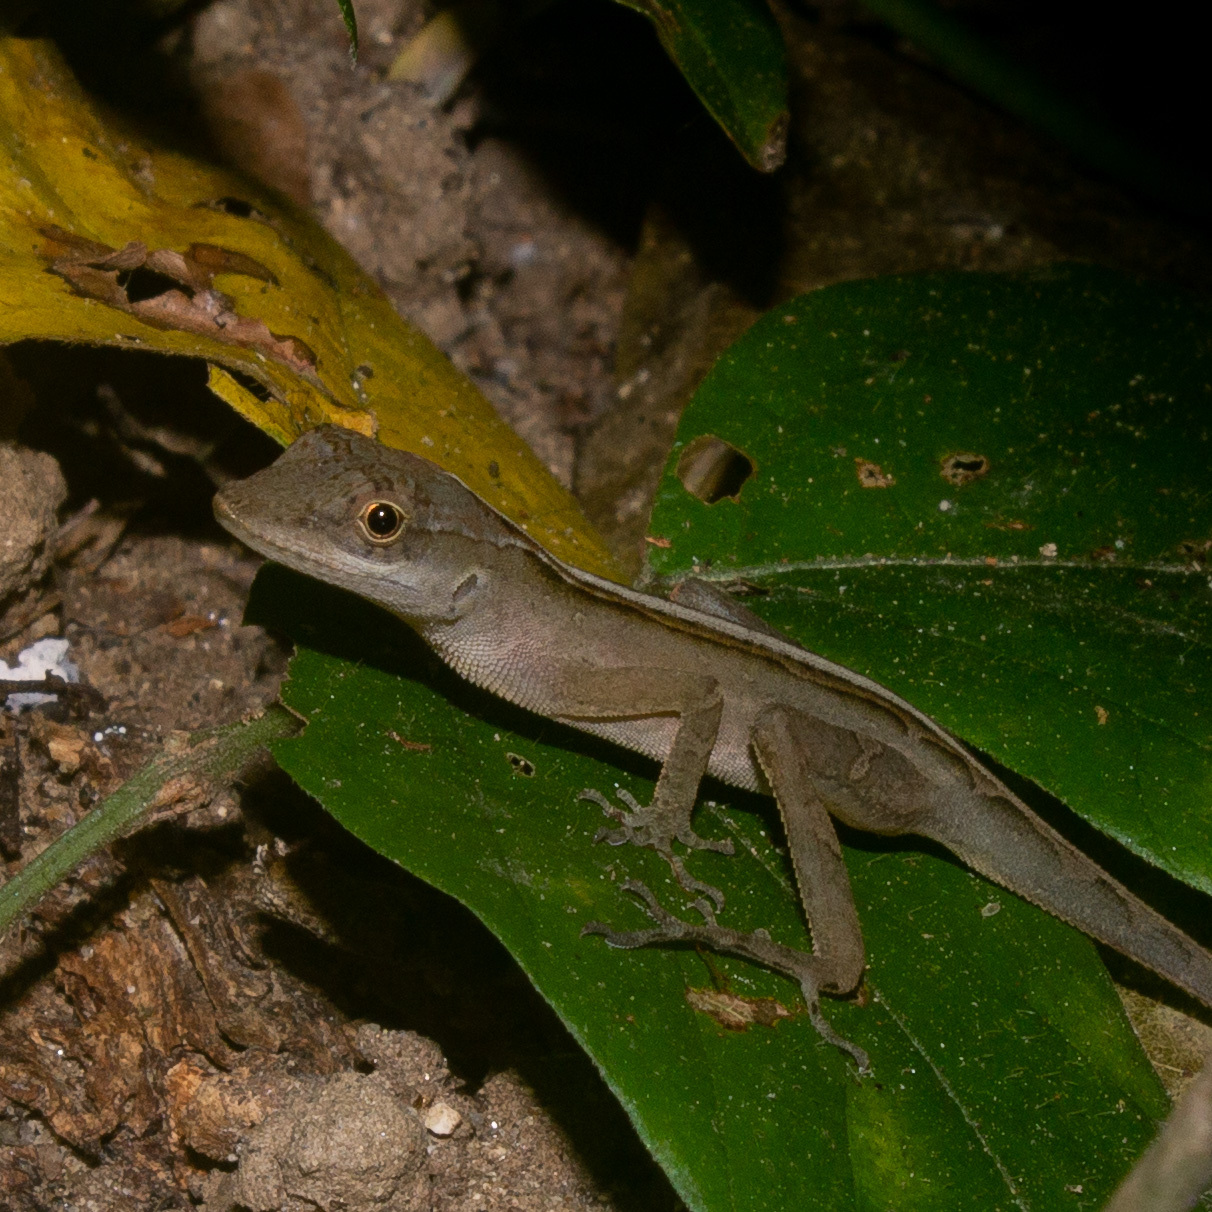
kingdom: Animalia
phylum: Chordata
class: Squamata
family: Dactyloidae
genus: Anolis
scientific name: Anolis gaigei
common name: Gaige’s anole
